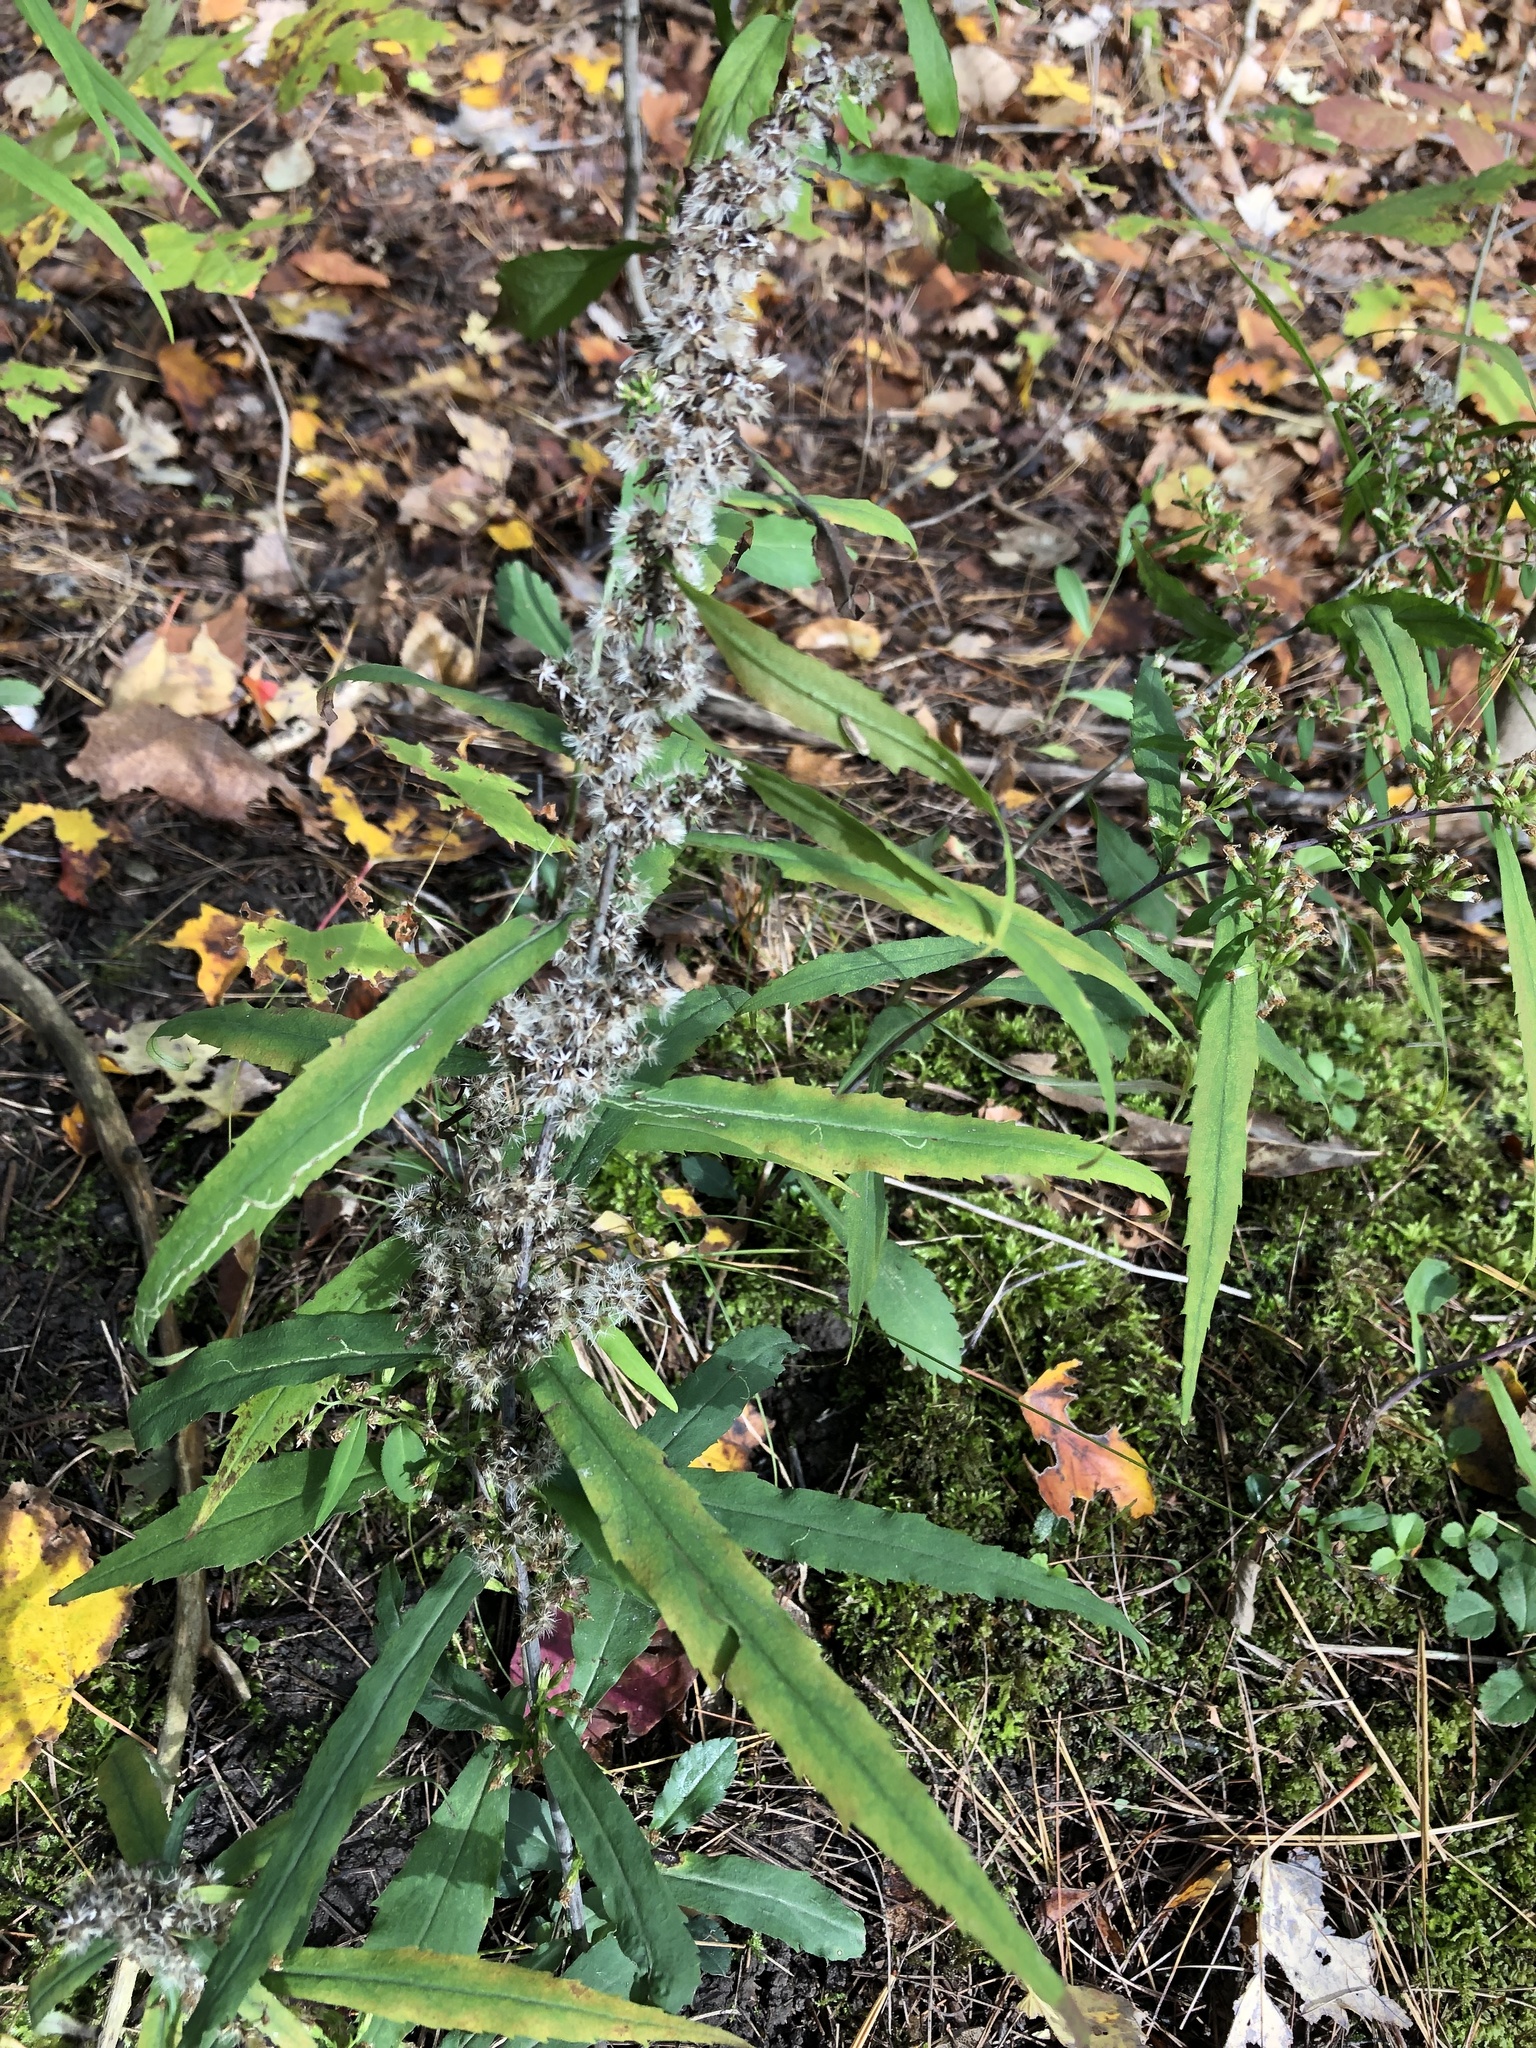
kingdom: Plantae
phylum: Tracheophyta
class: Magnoliopsida
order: Asterales
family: Asteraceae
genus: Solidago
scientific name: Solidago caesia
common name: Woodland goldenrod
